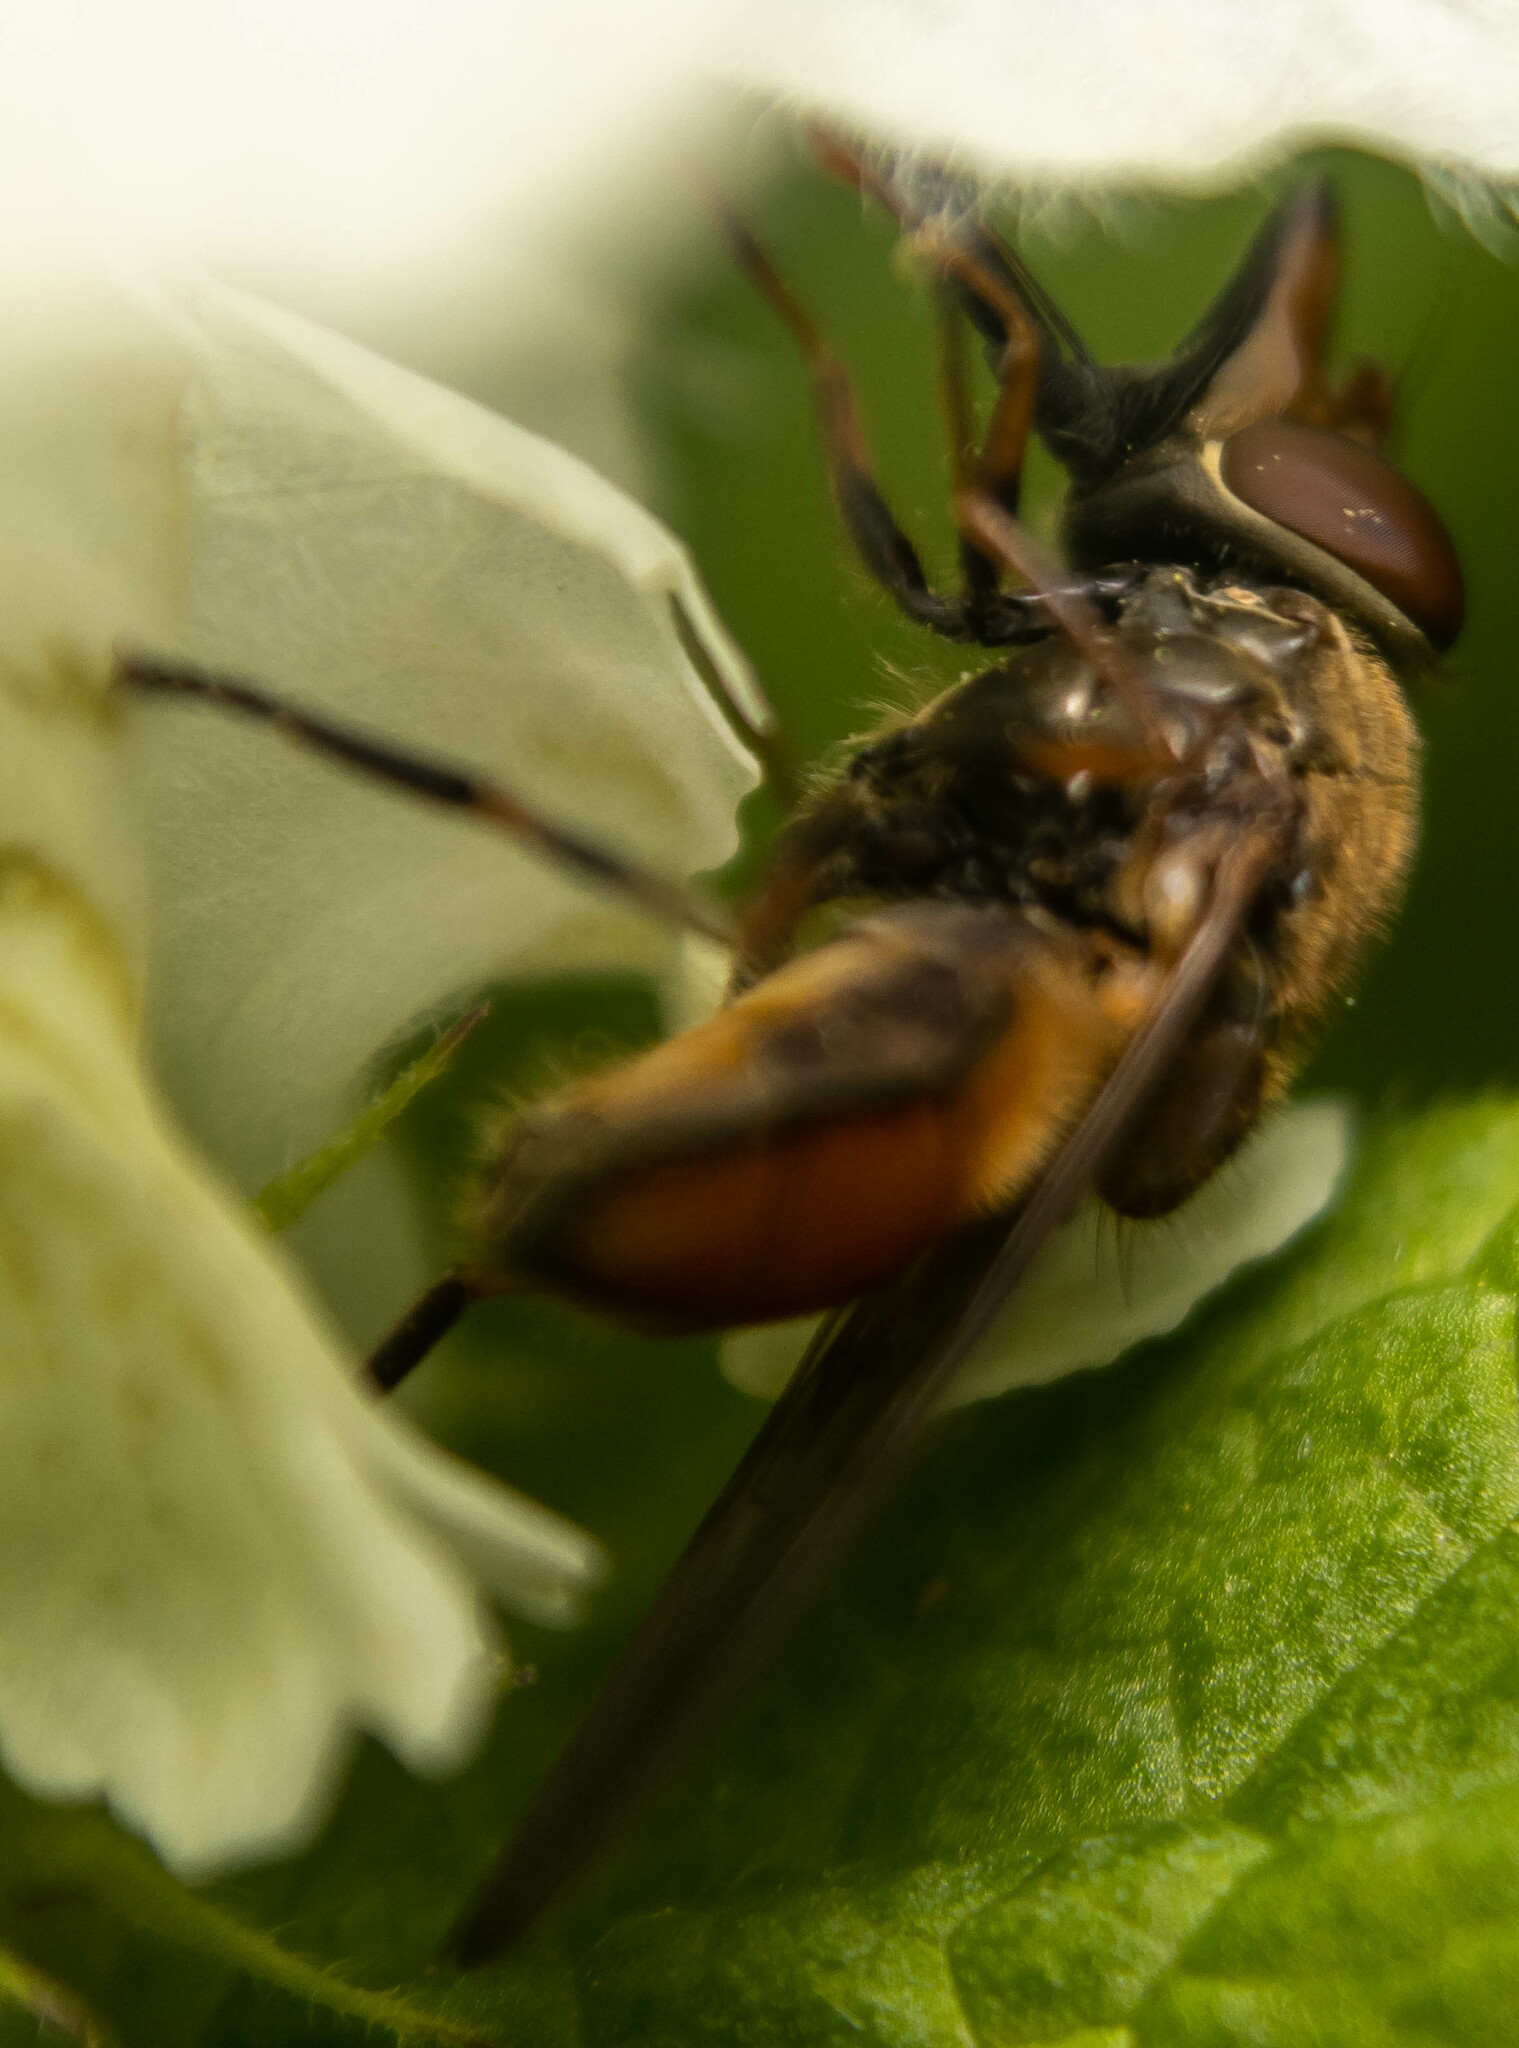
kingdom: Animalia
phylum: Arthropoda
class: Insecta
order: Diptera
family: Syrphidae
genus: Rhingia
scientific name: Rhingia campestris
